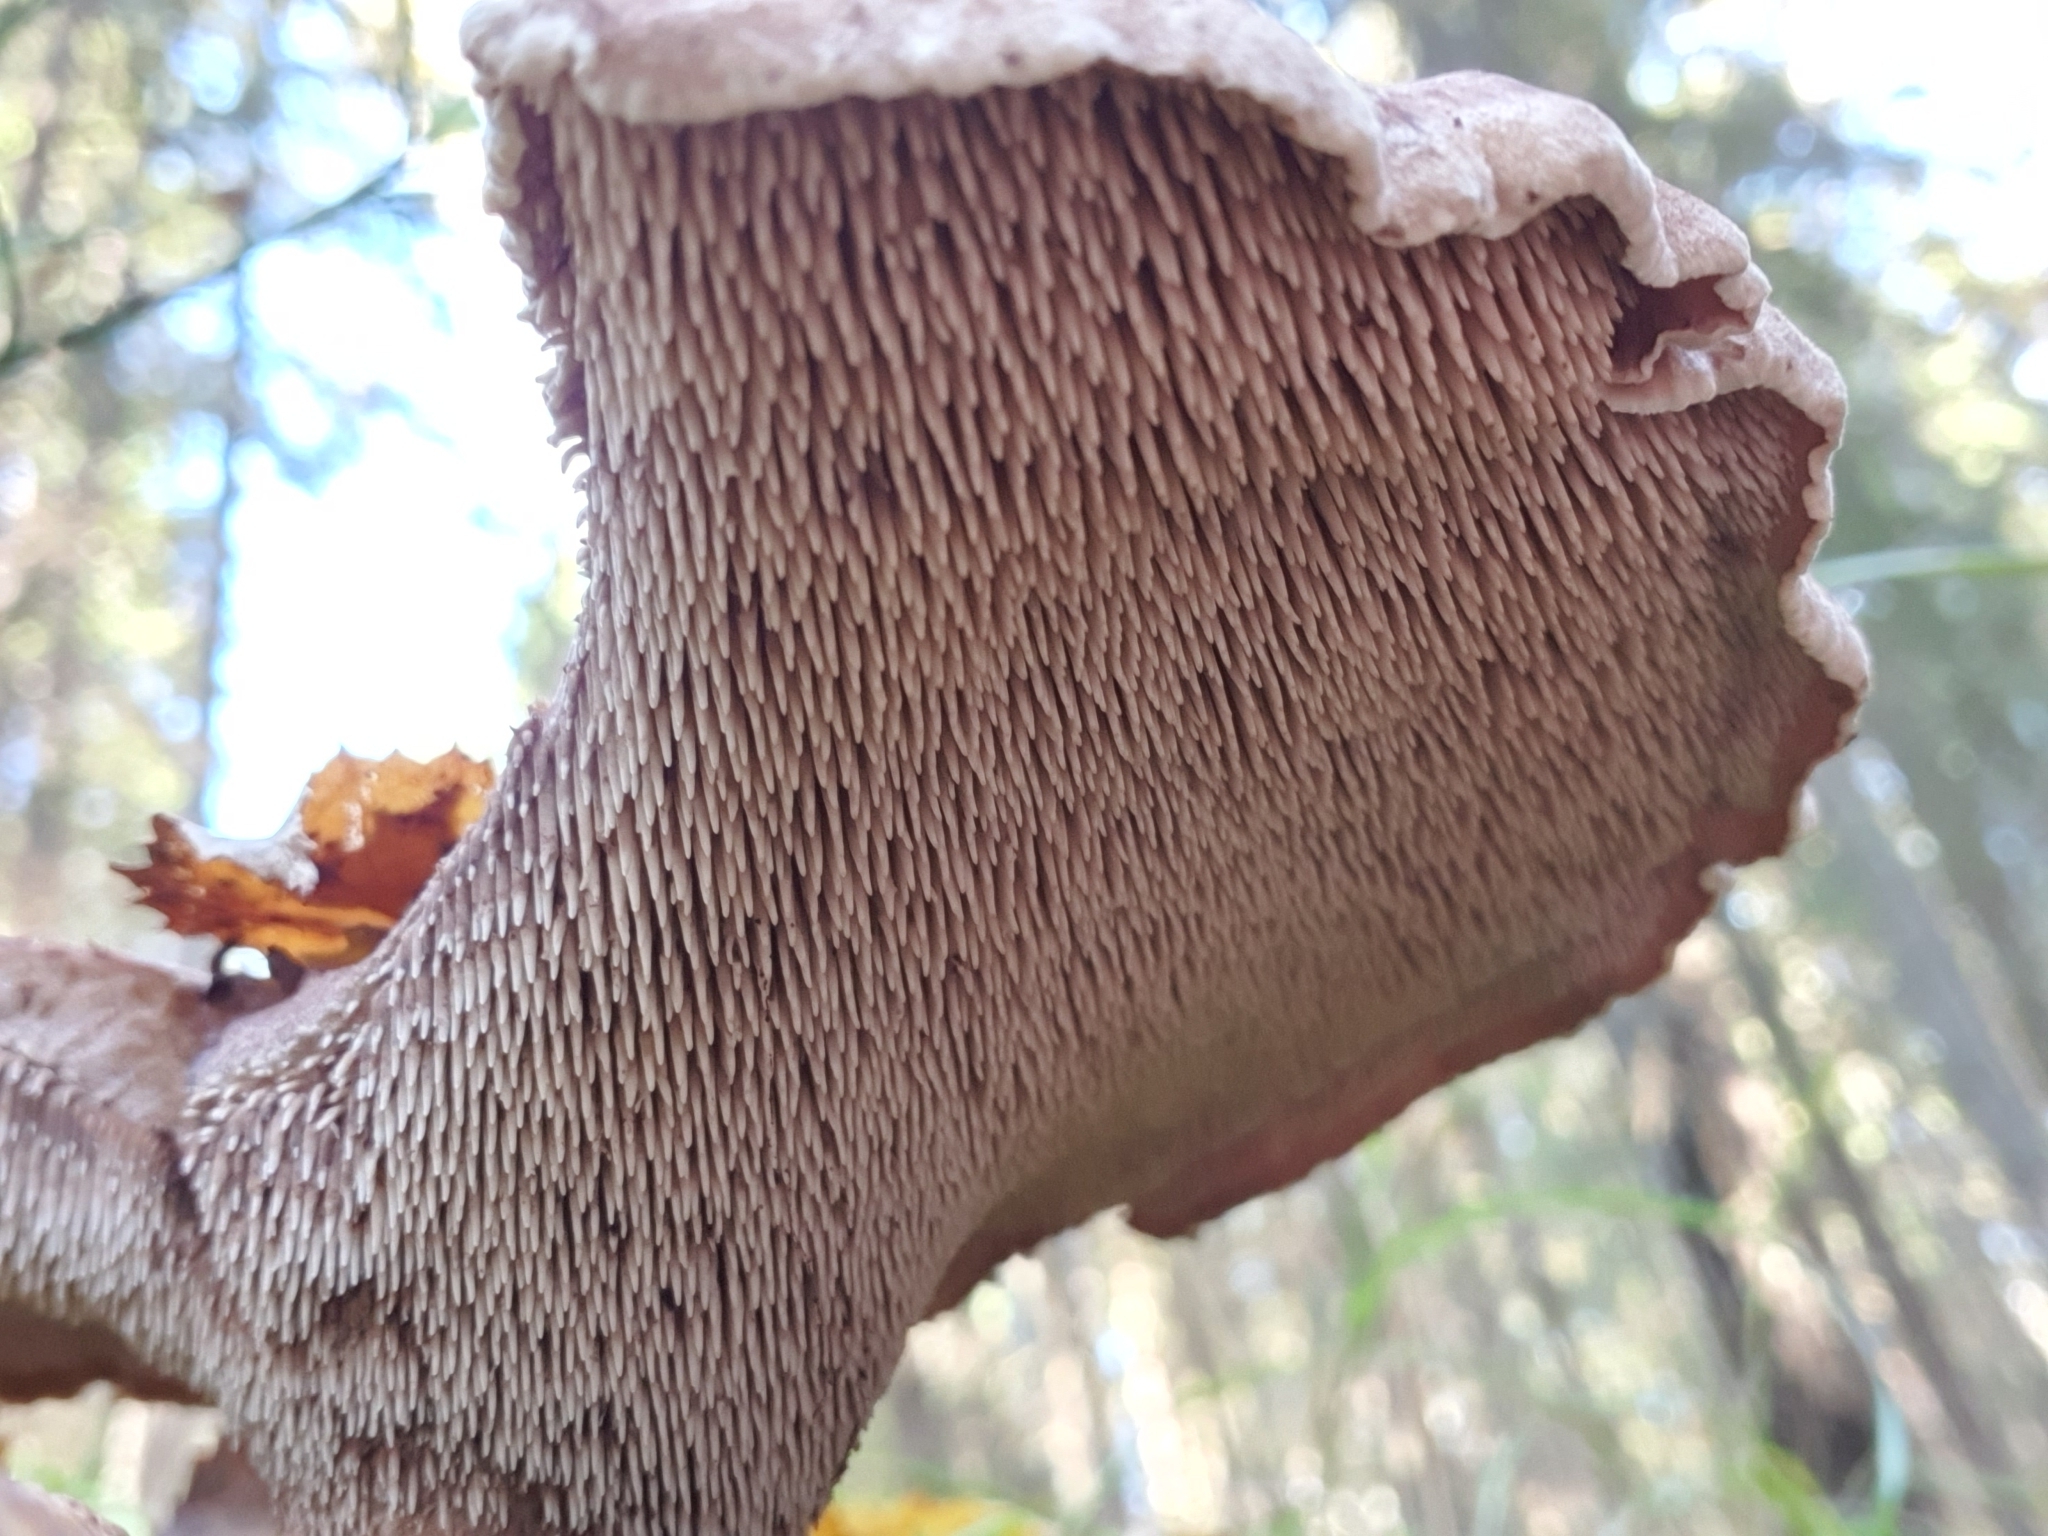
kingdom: Fungi
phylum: Basidiomycota
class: Agaricomycetes
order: Thelephorales
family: Bankeraceae
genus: Sarcodon
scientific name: Sarcodon imbricatus
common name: Shingled hedgehog
